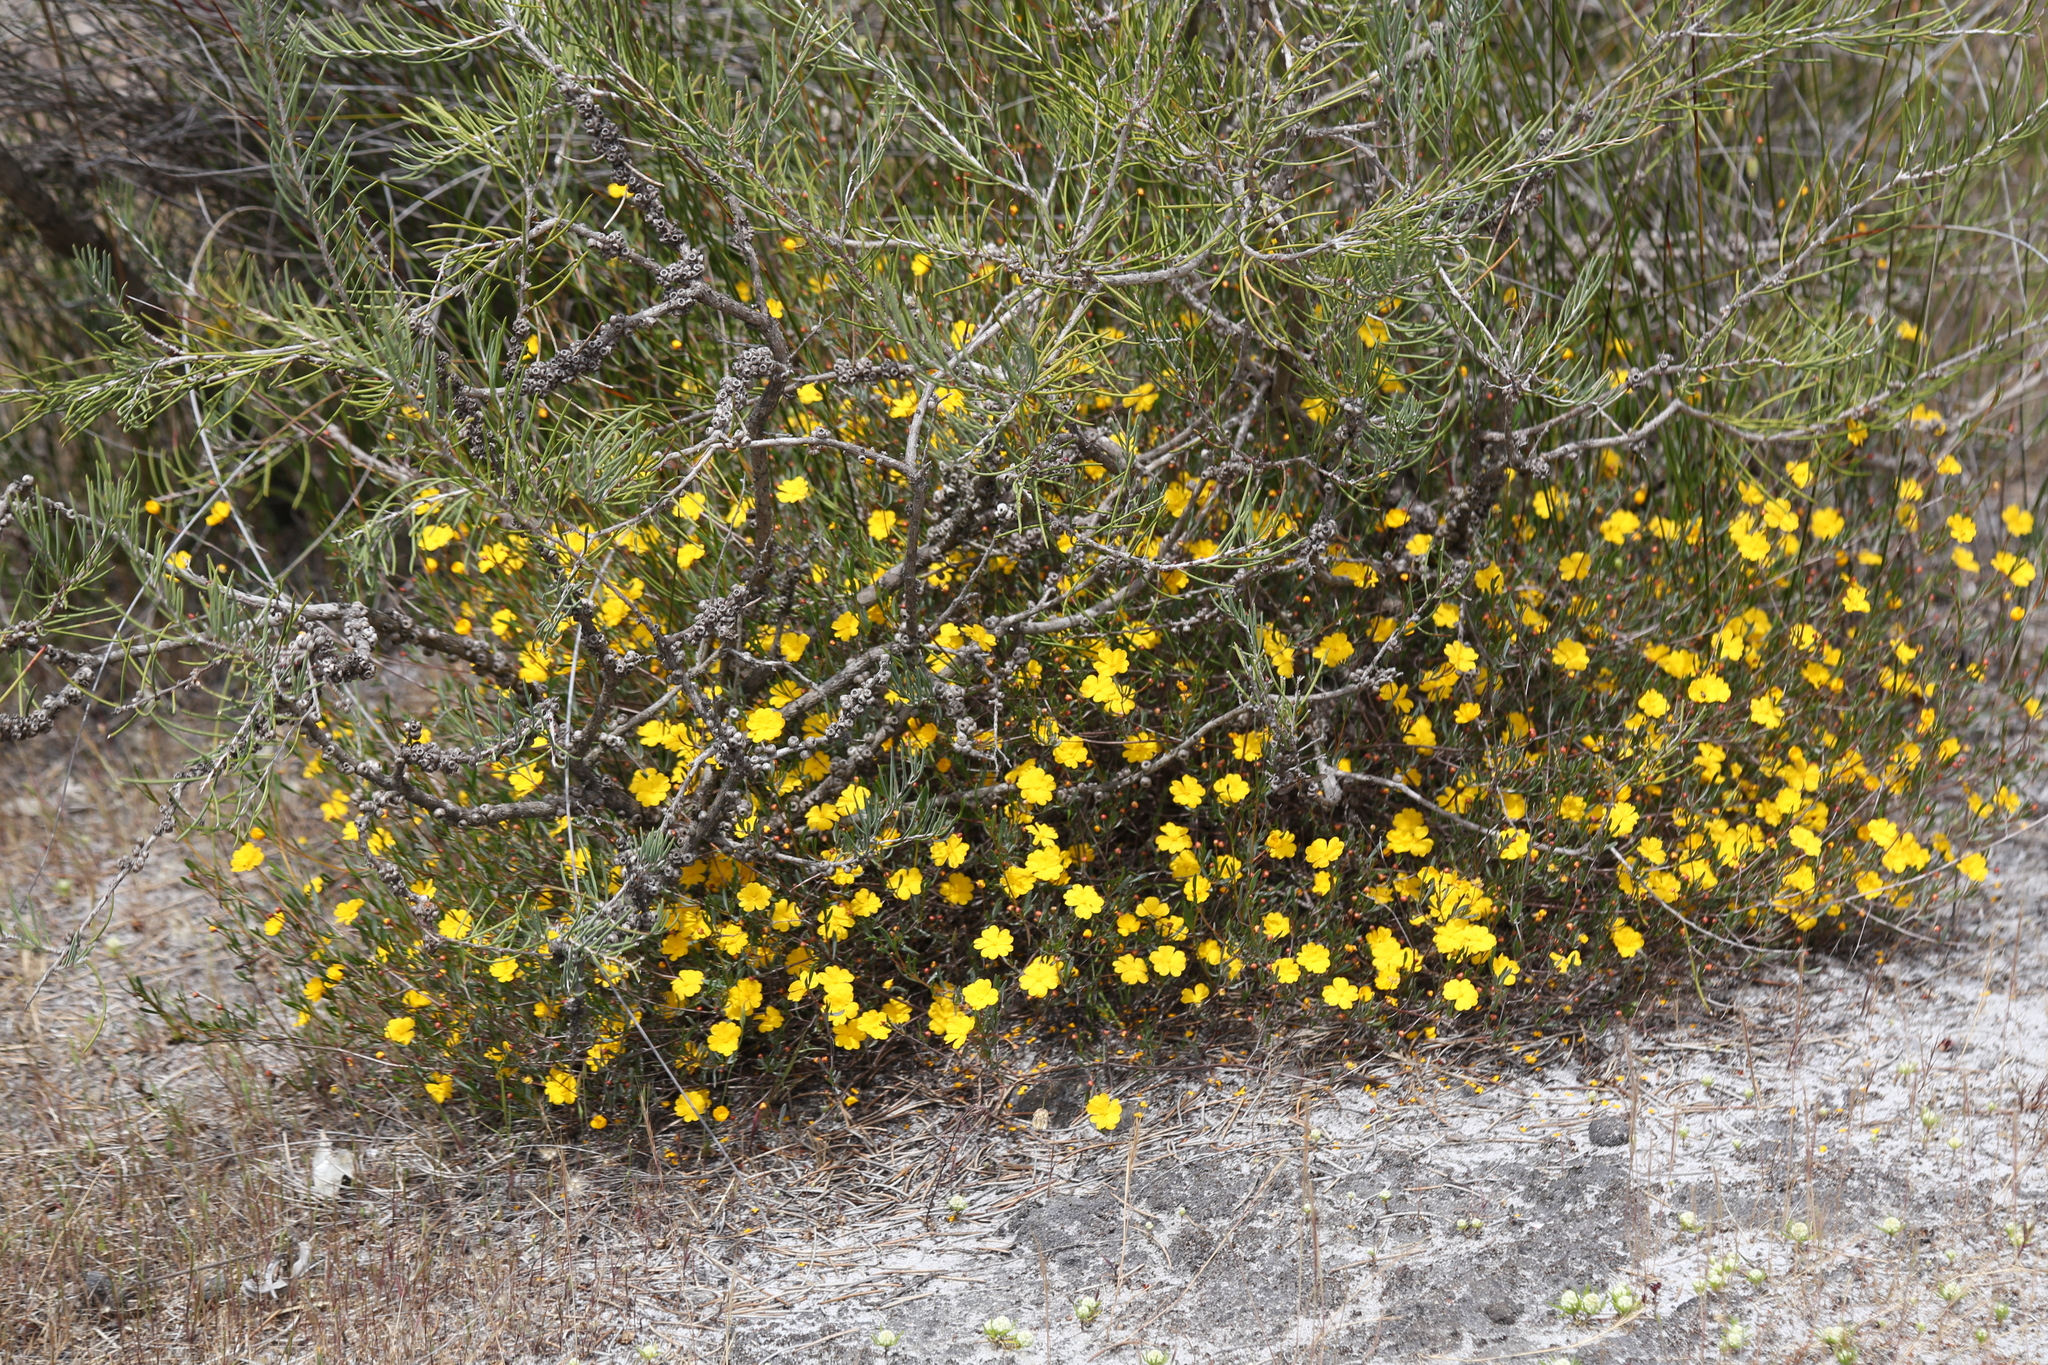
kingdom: Plantae
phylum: Tracheophyta
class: Magnoliopsida
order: Dilleniales
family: Dilleniaceae
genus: Hibbertia
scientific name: Hibbertia stellaris
